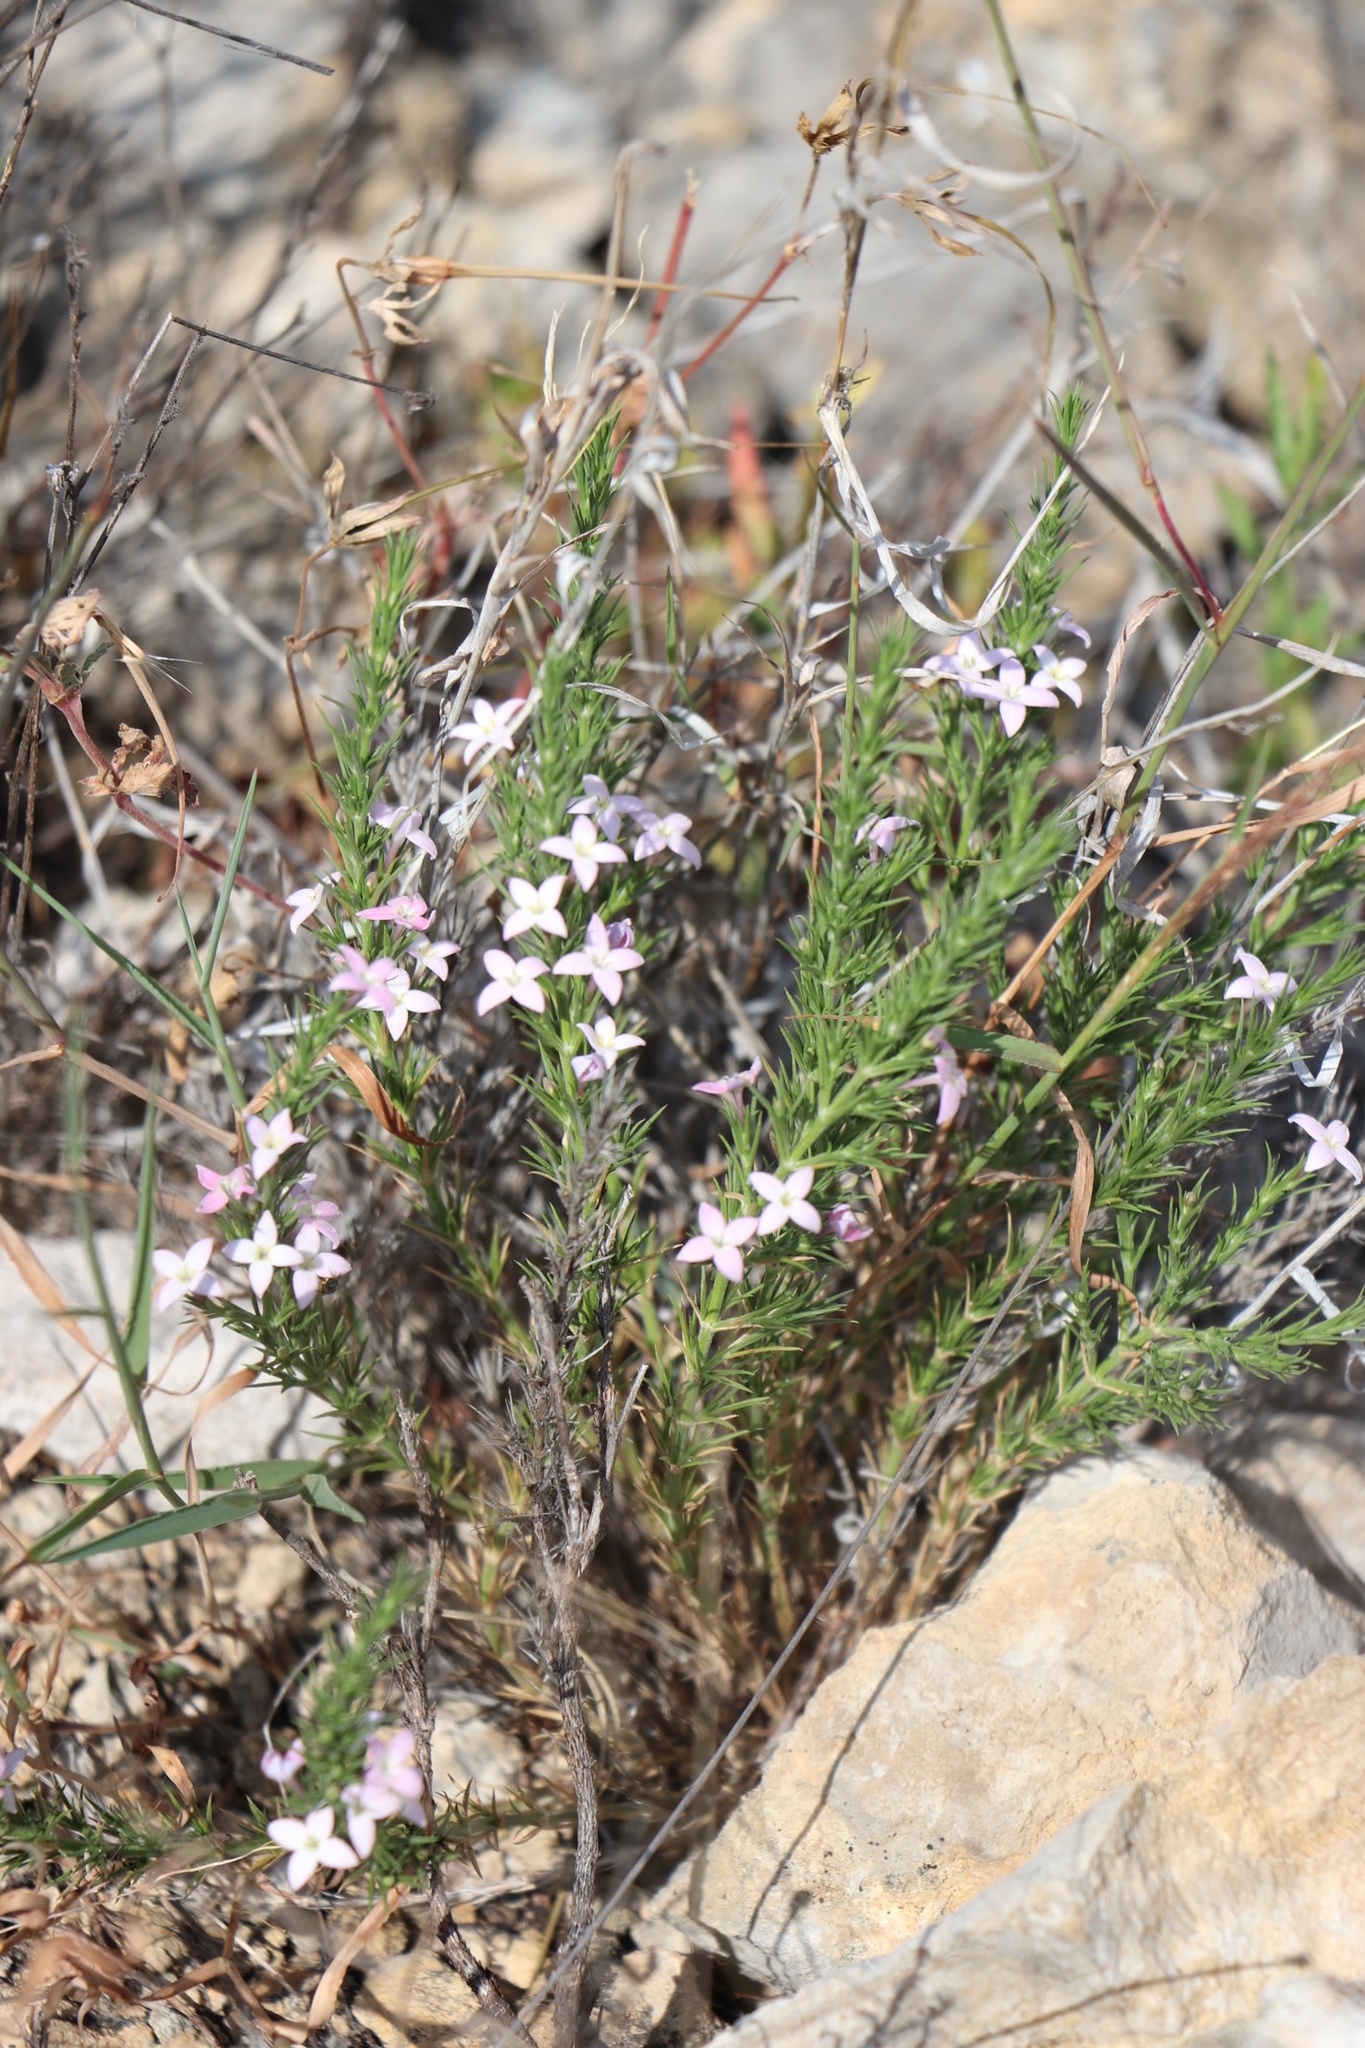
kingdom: Plantae
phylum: Tracheophyta
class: Magnoliopsida
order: Gentianales
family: Rubiaceae
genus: Houstonia
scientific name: Houstonia acerosa
